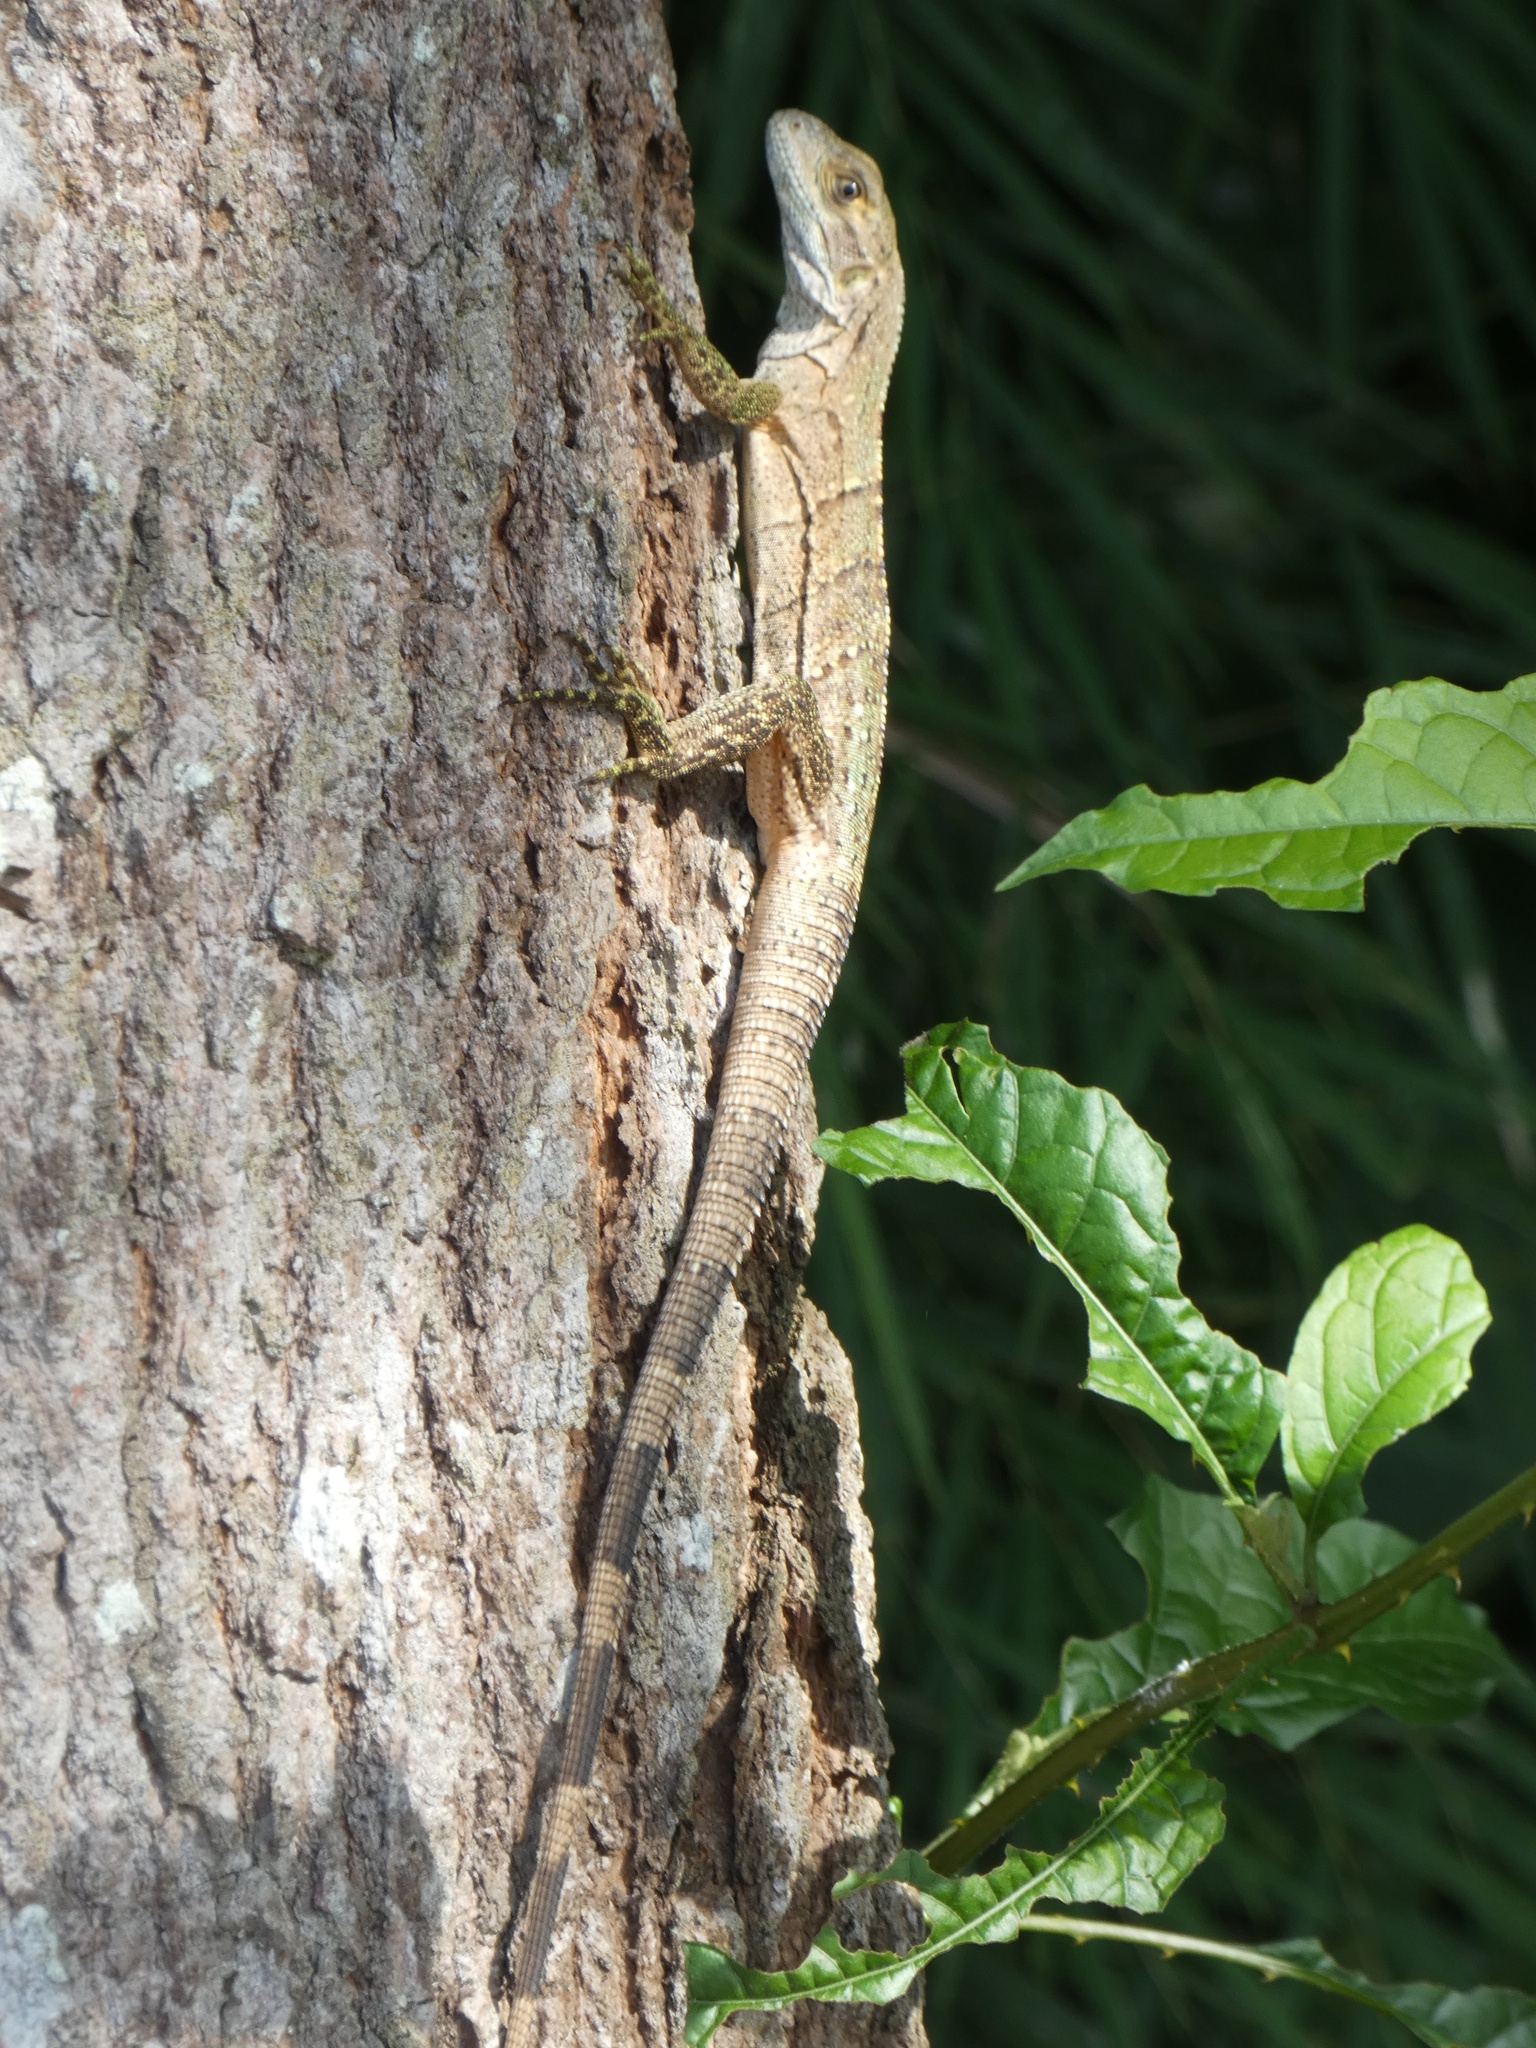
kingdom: Animalia
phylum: Chordata
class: Squamata
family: Iguanidae
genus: Ctenosaura
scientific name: Ctenosaura similis
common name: Black spiny-tailed iguana
